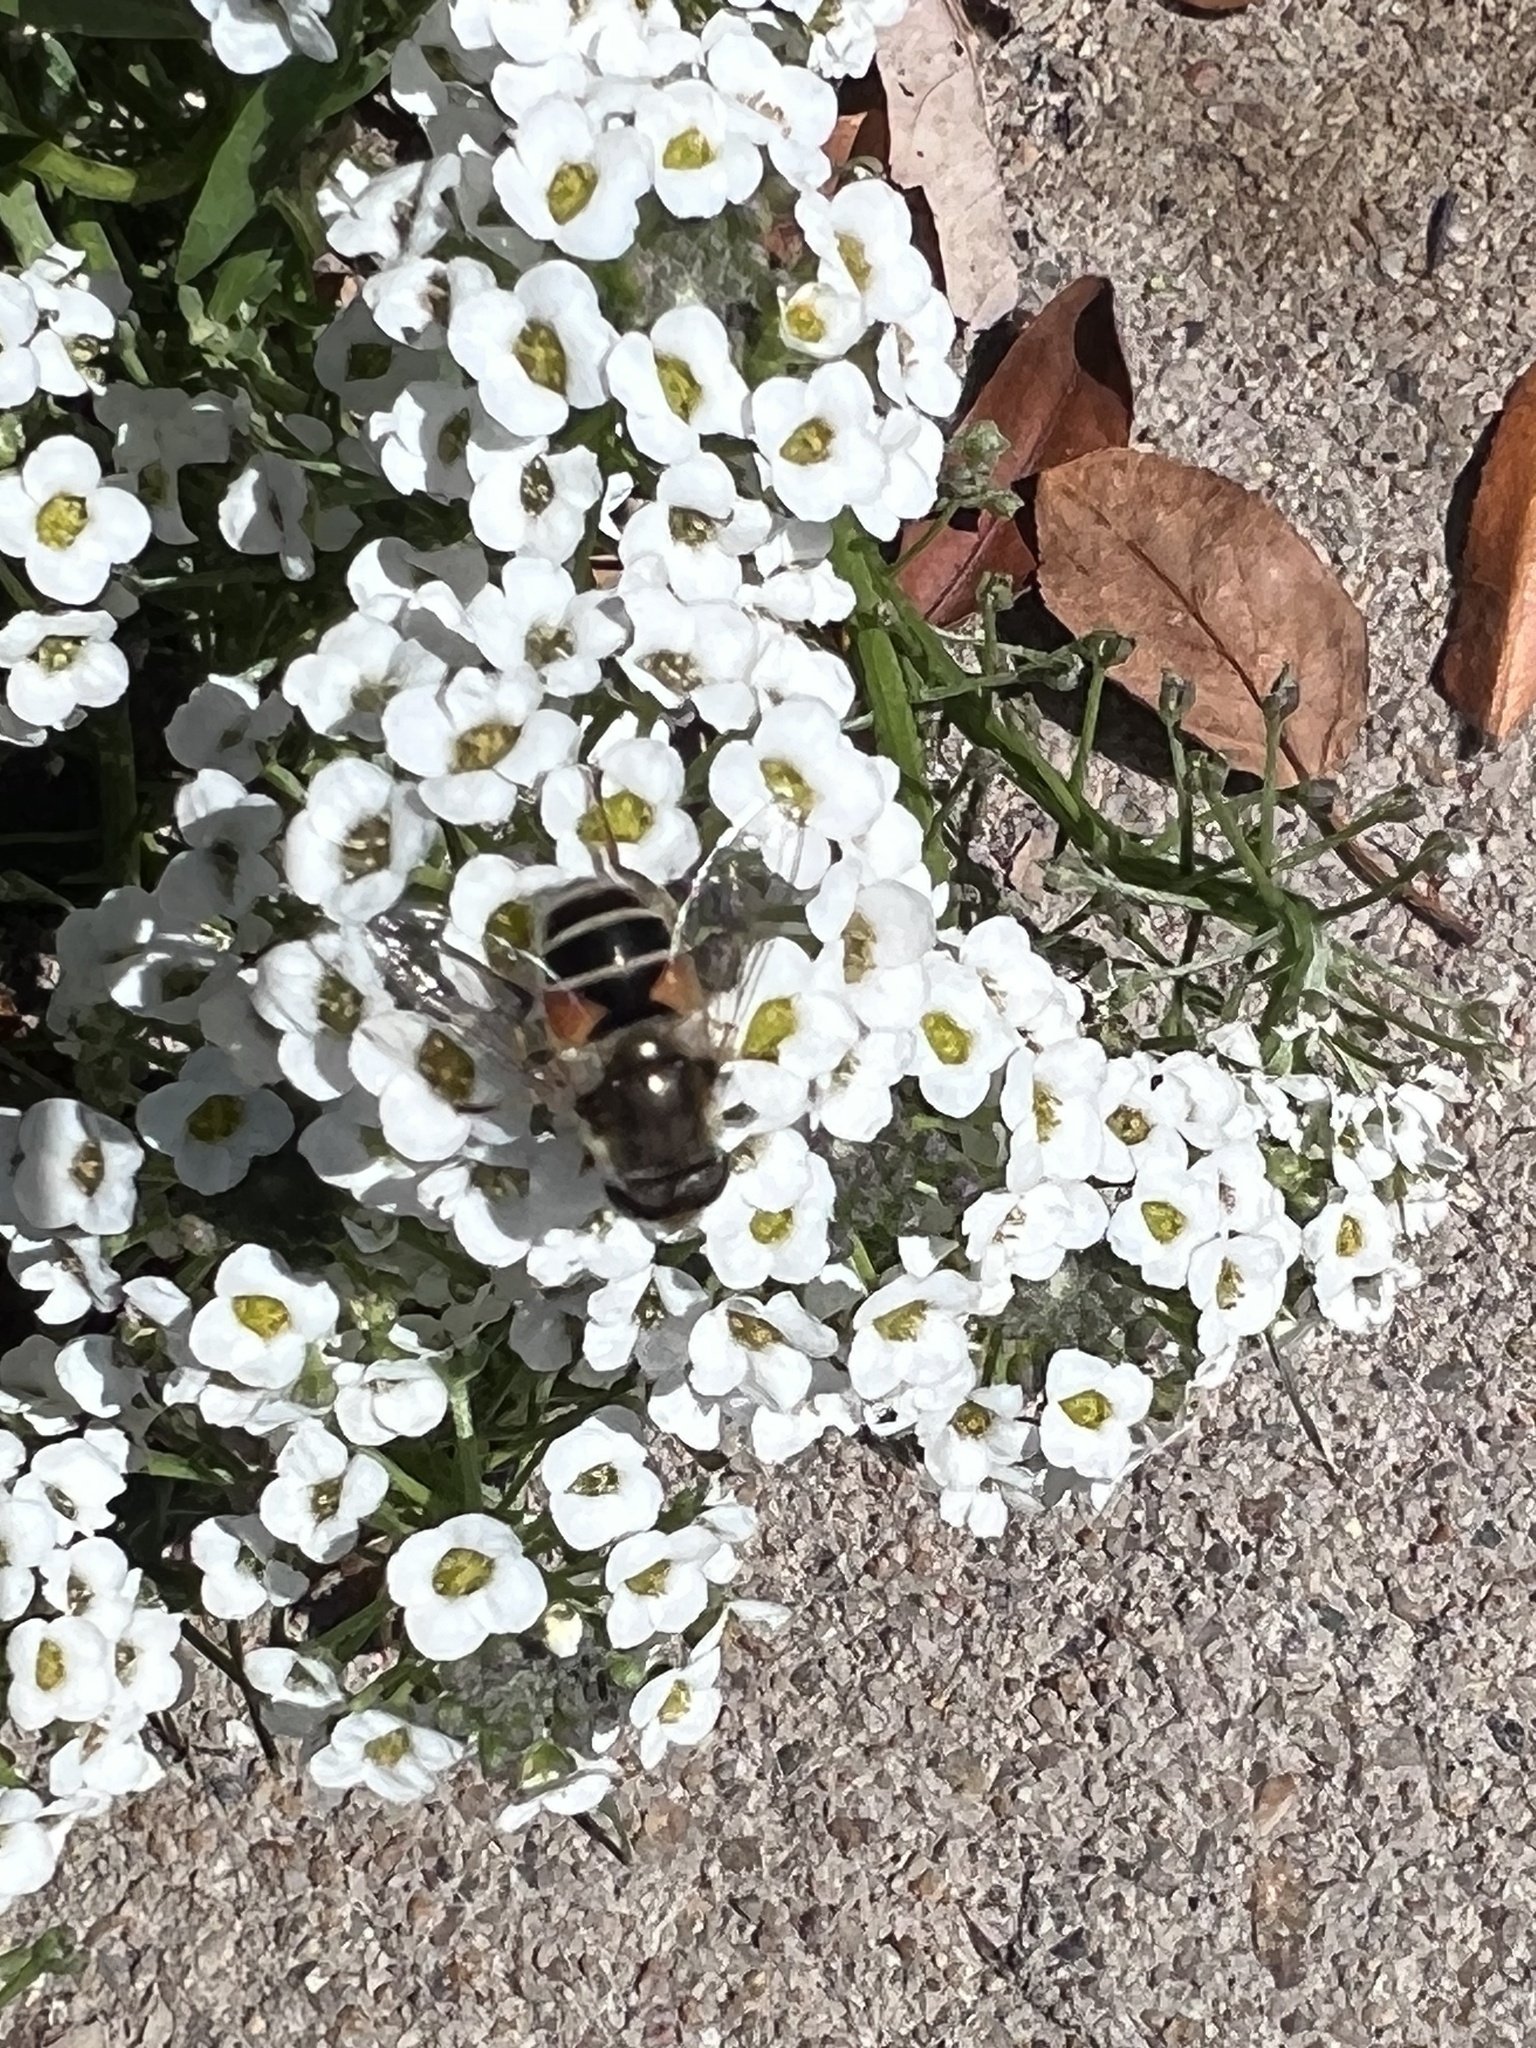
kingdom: Animalia
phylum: Arthropoda
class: Insecta
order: Diptera
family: Syrphidae
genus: Eristalis
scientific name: Eristalis arbustorum
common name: Hover fly
